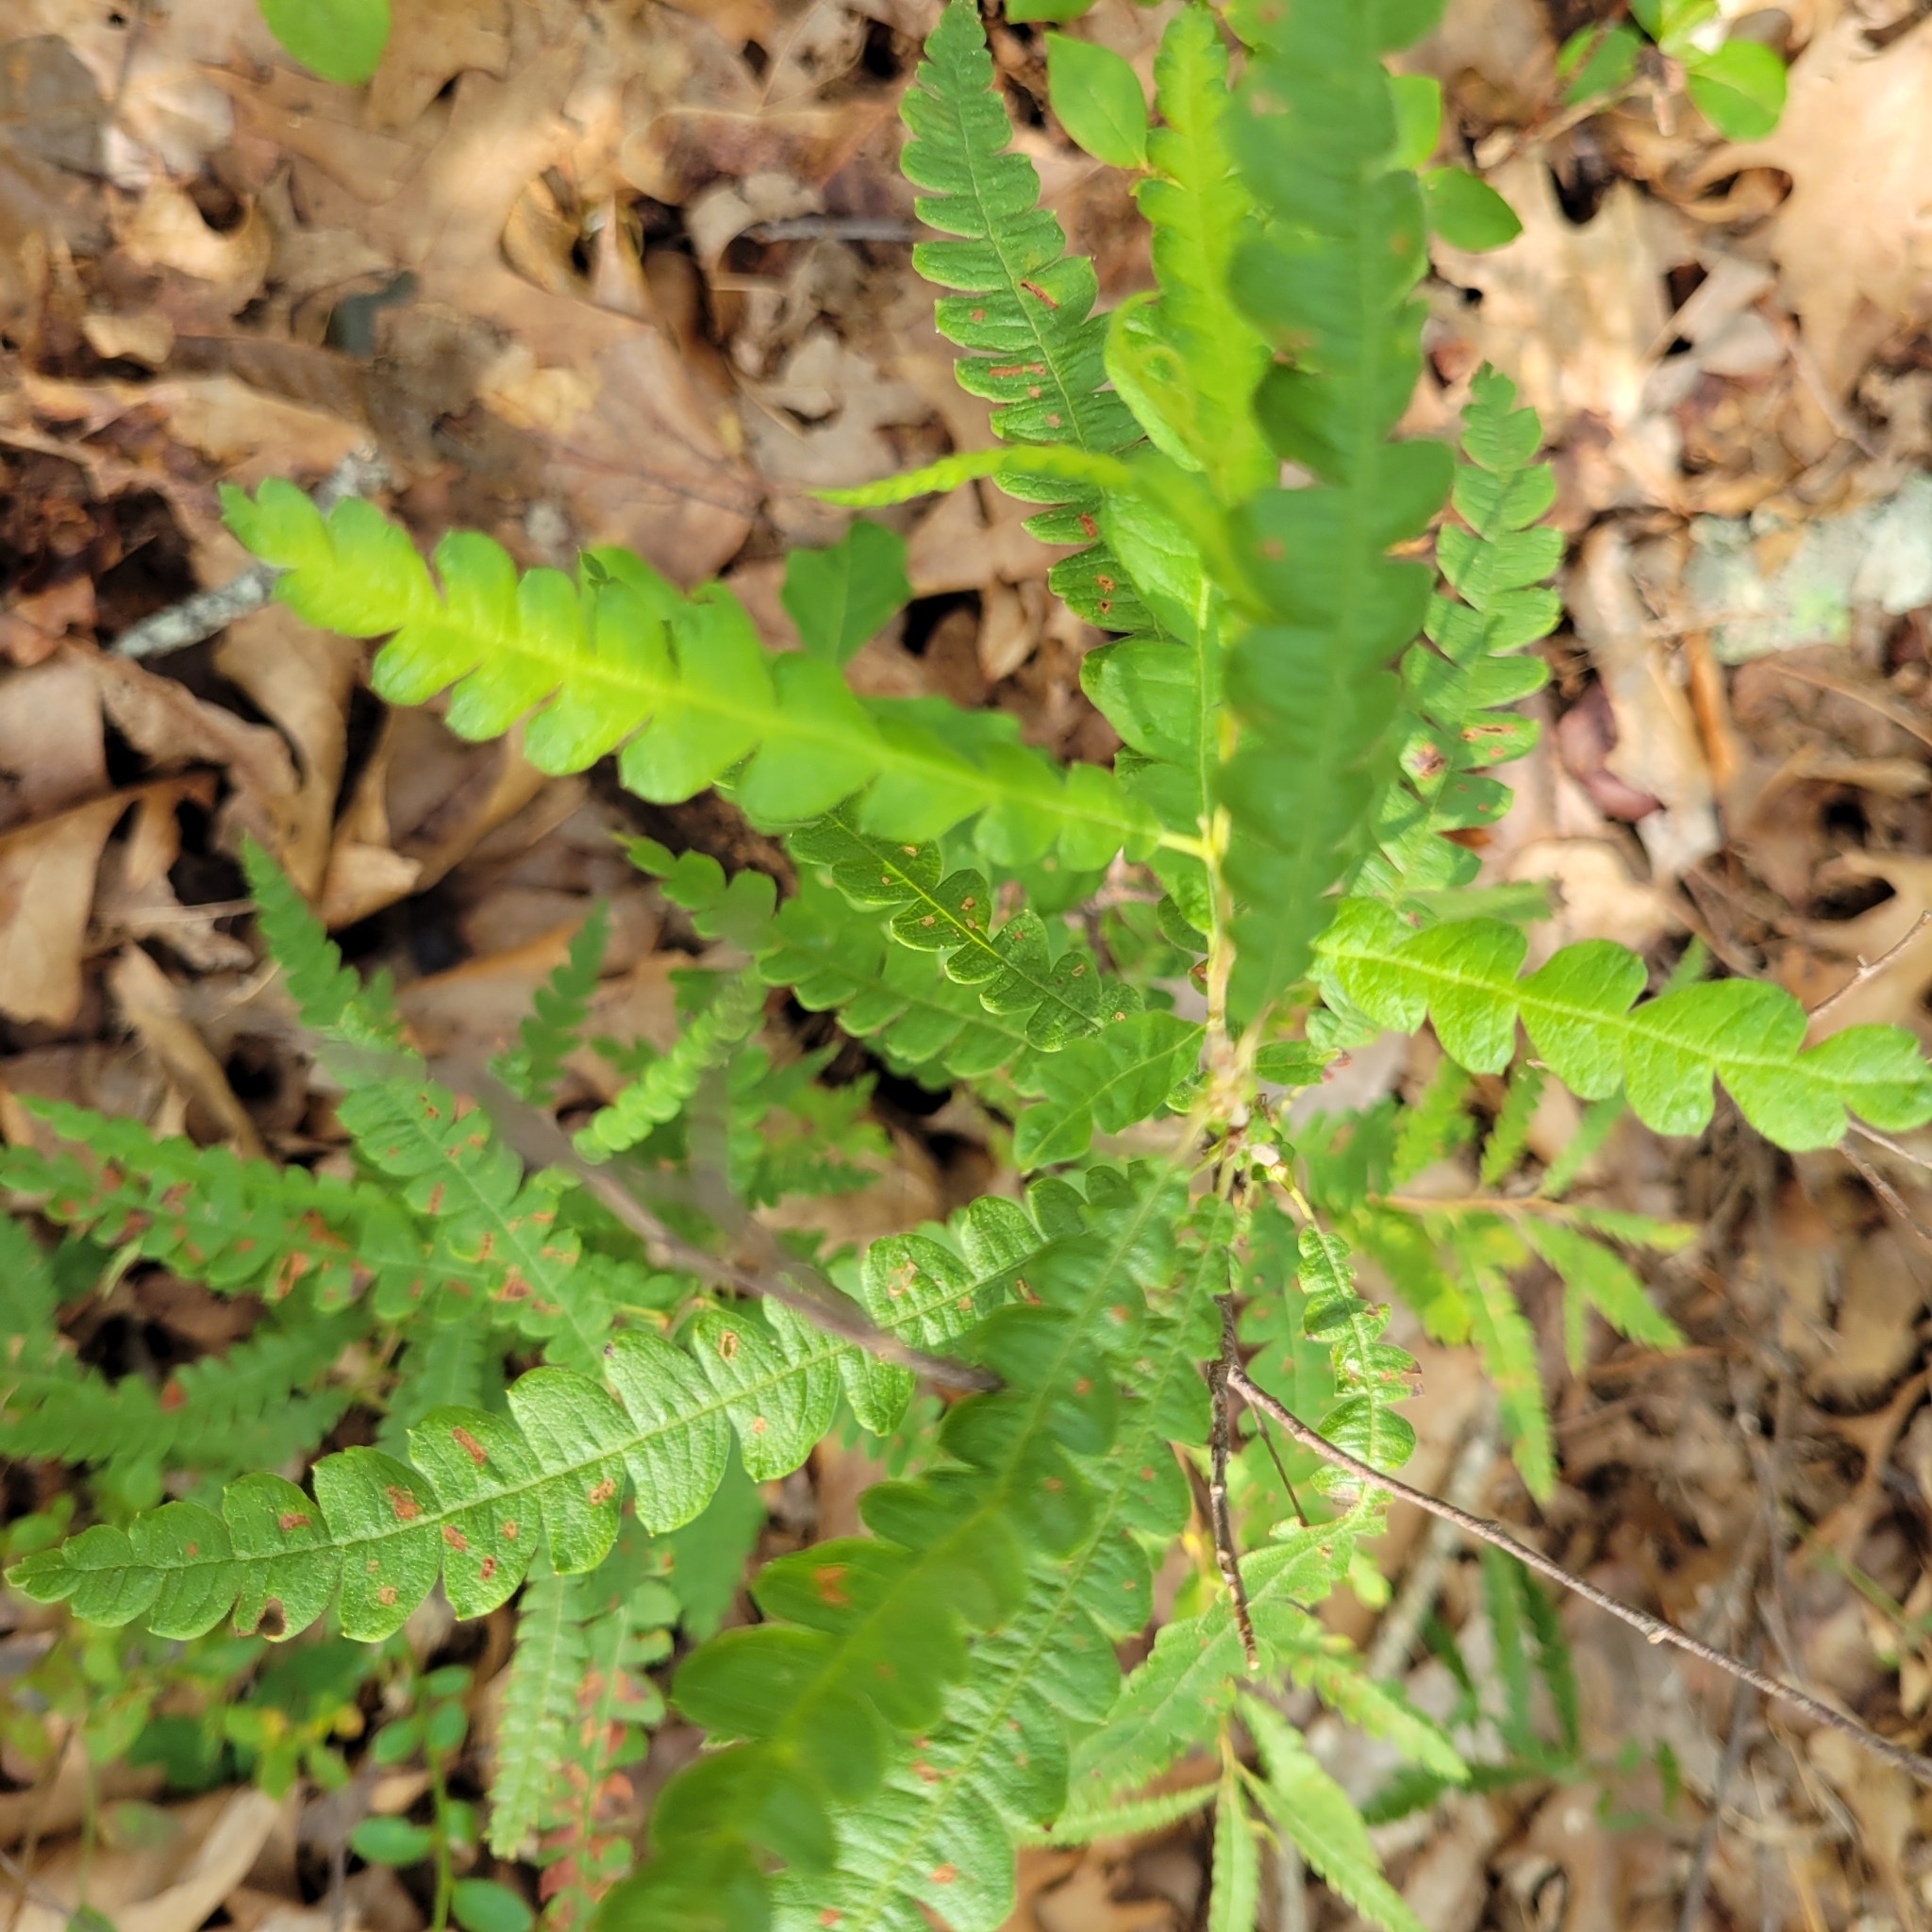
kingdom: Plantae
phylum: Tracheophyta
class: Magnoliopsida
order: Fagales
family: Myricaceae
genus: Comptonia
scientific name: Comptonia peregrina
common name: Sweet-fern
